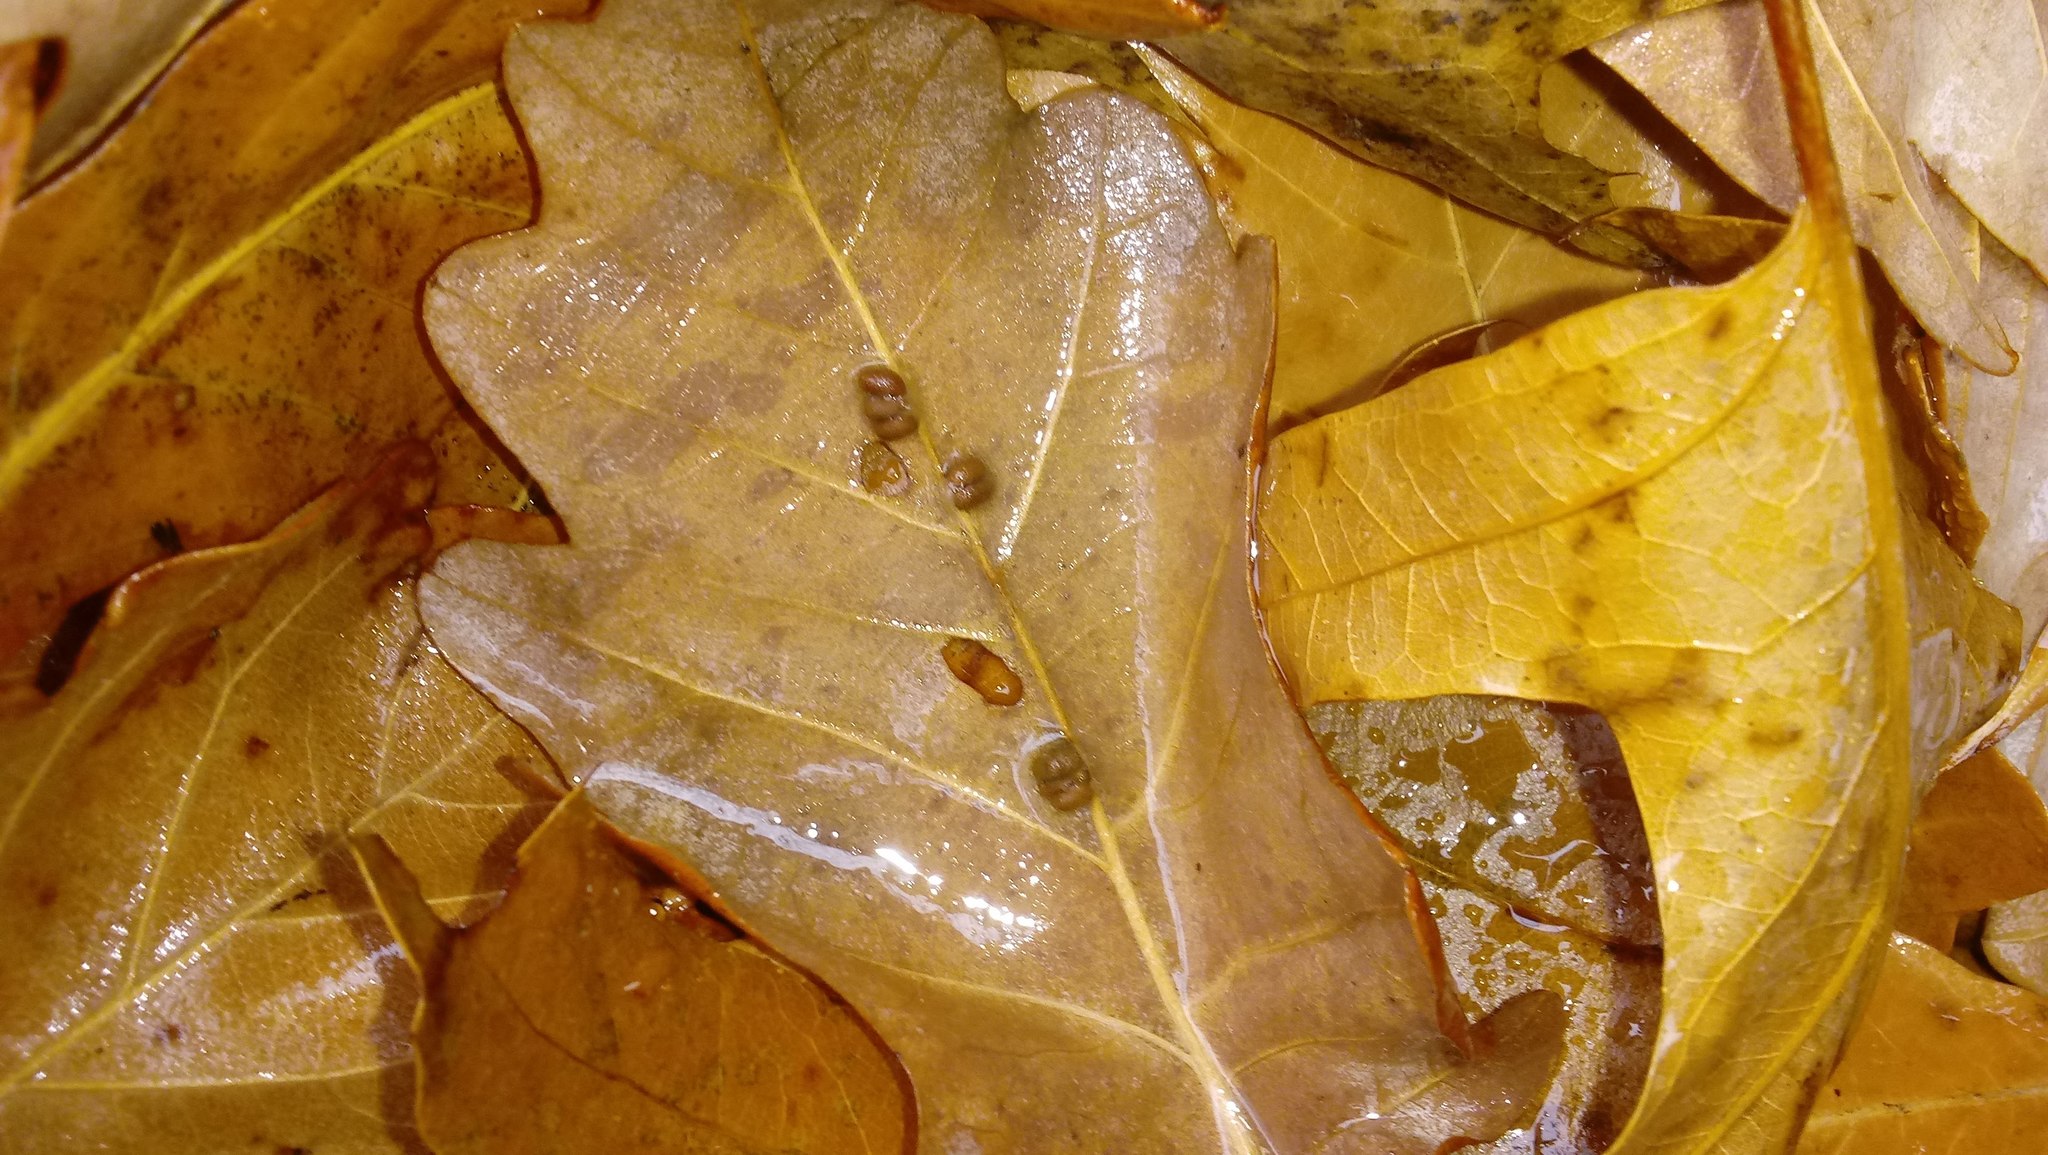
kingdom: Animalia
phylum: Arthropoda
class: Insecta
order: Hymenoptera
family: Cynipidae
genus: Andricus
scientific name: Andricus Druon ignotum
